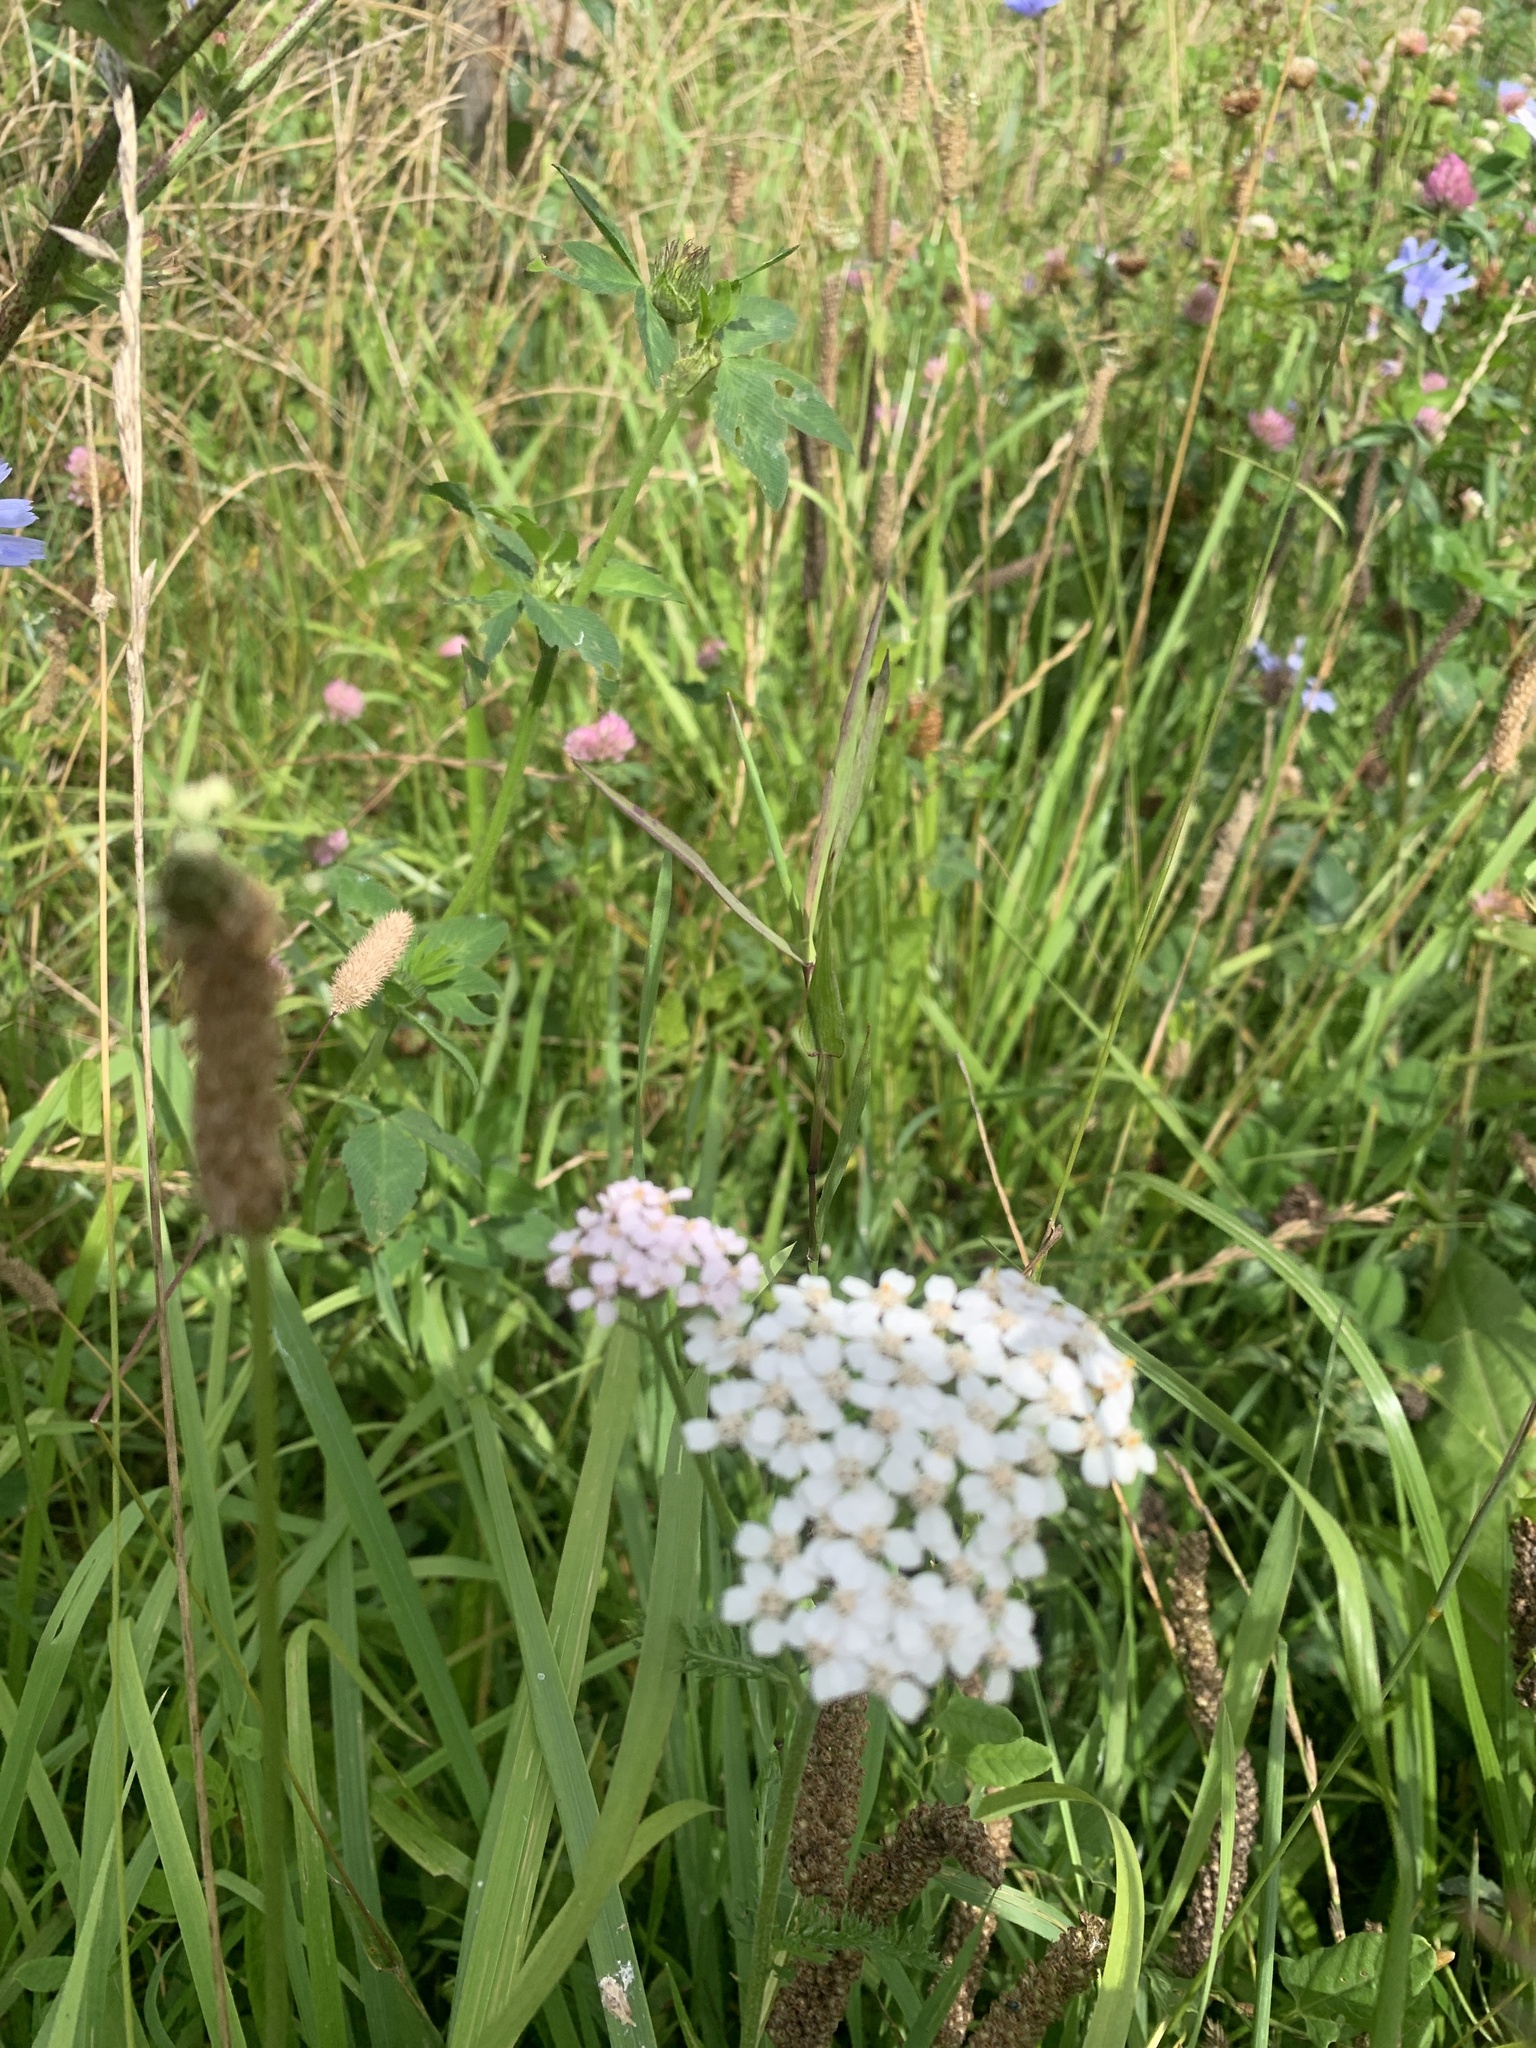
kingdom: Plantae
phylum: Tracheophyta
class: Magnoliopsida
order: Asterales
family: Asteraceae
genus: Achillea
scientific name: Achillea millefolium
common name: Yarrow
